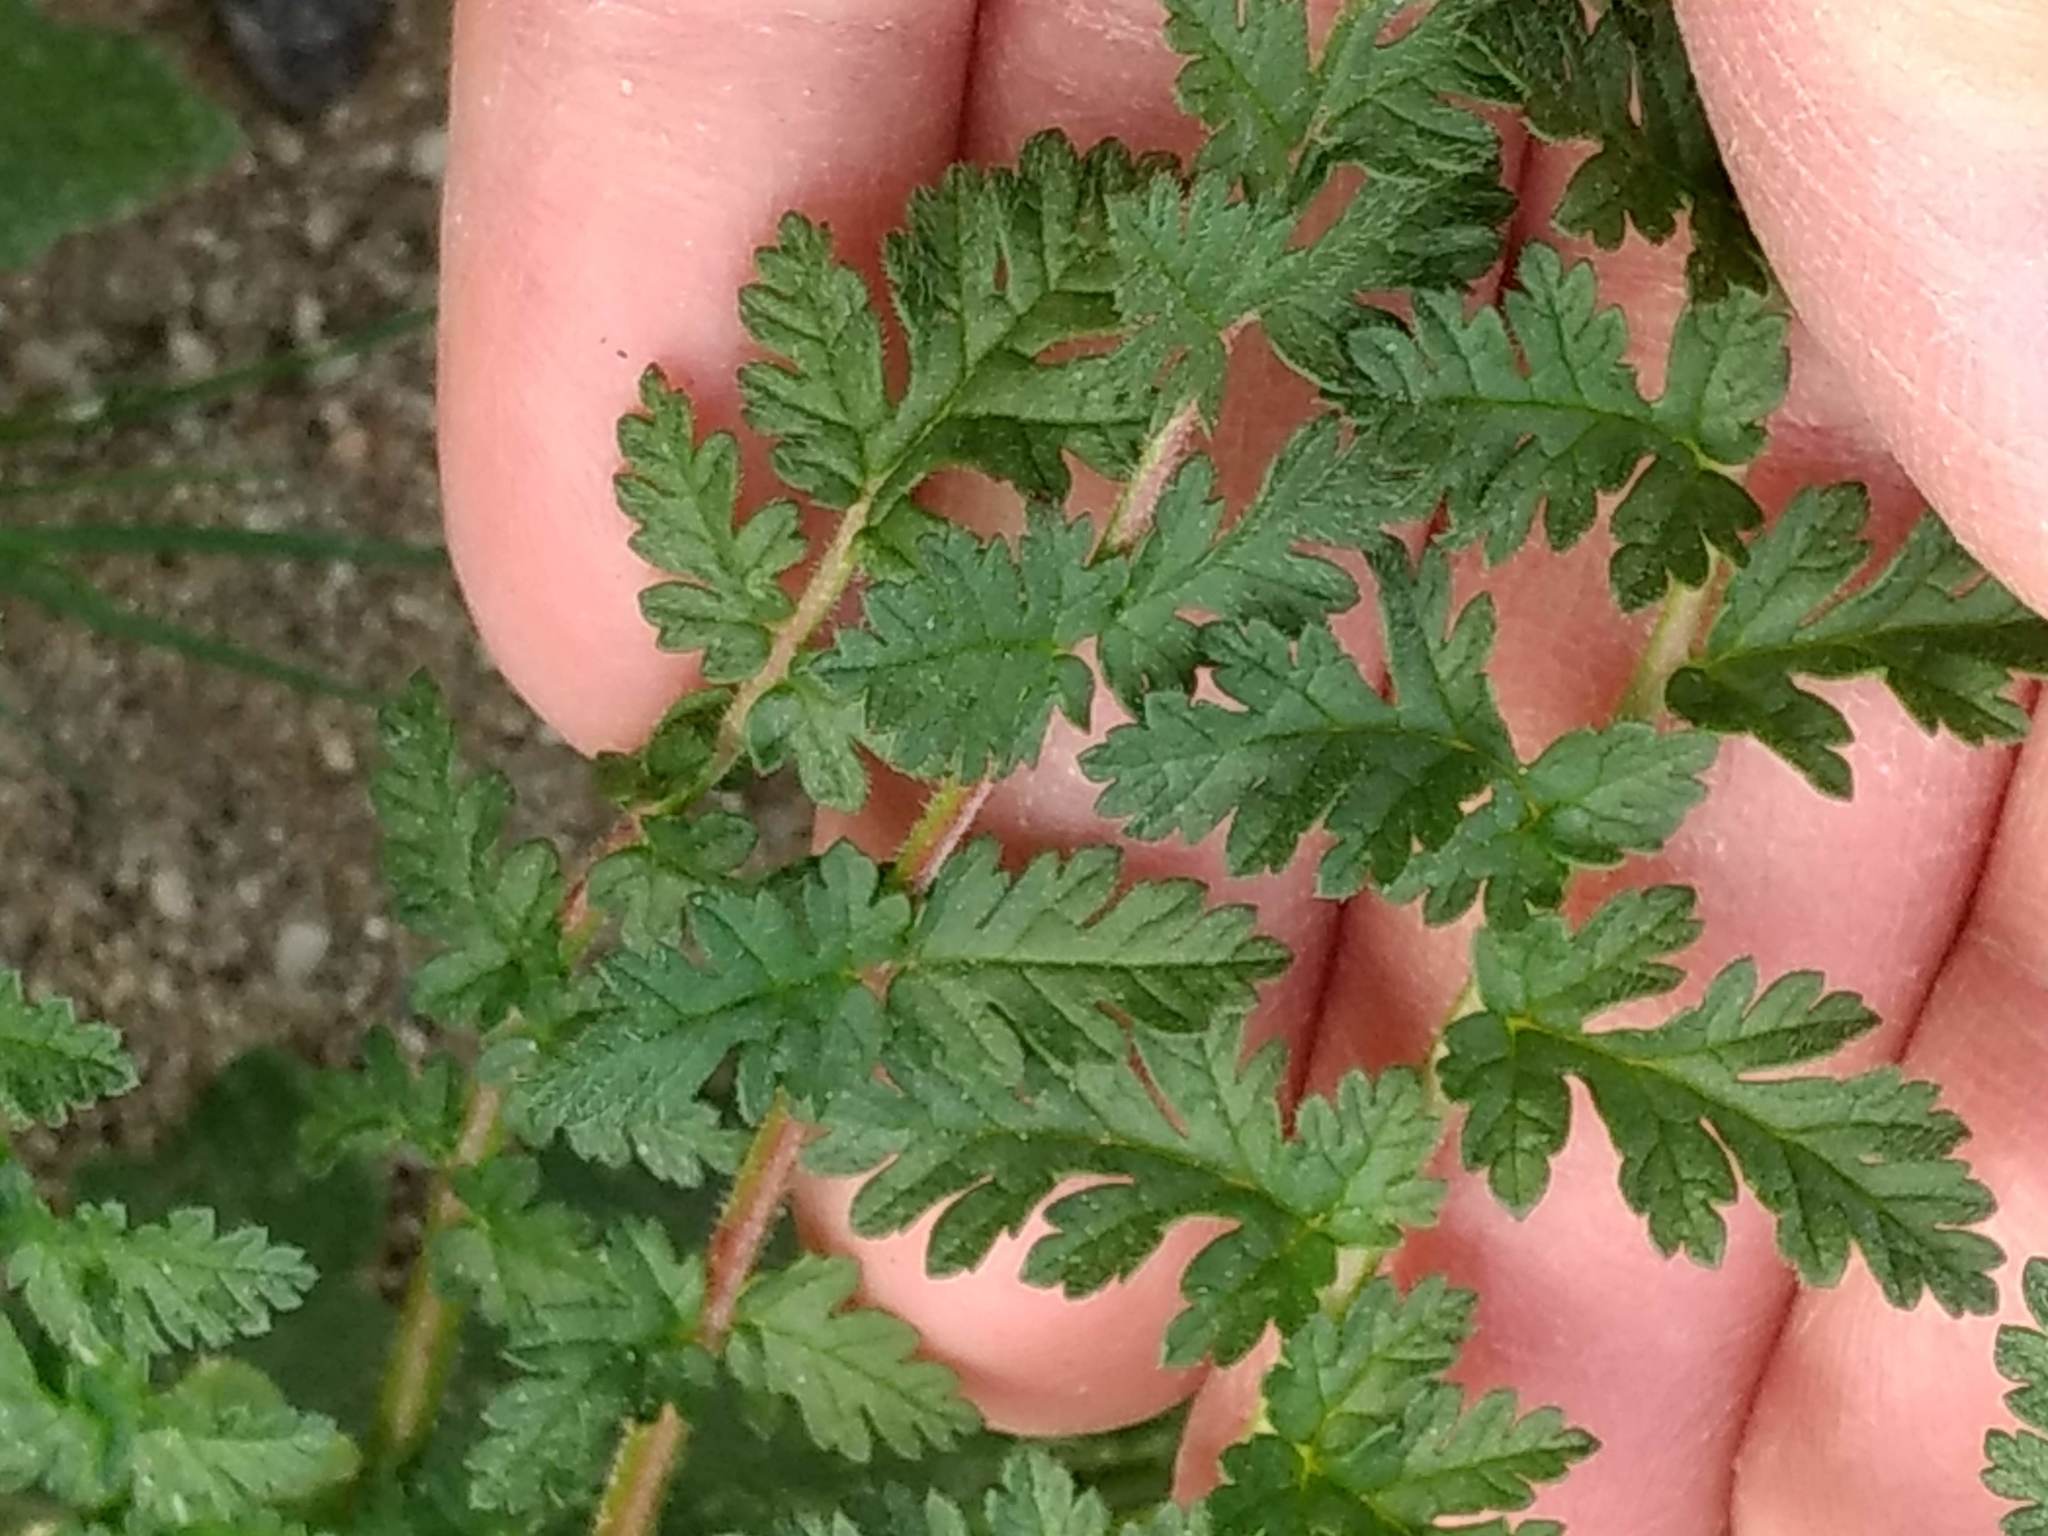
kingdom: Plantae
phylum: Tracheophyta
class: Magnoliopsida
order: Geraniales
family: Geraniaceae
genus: Erodium
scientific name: Erodium cicutarium
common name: Common stork's-bill
